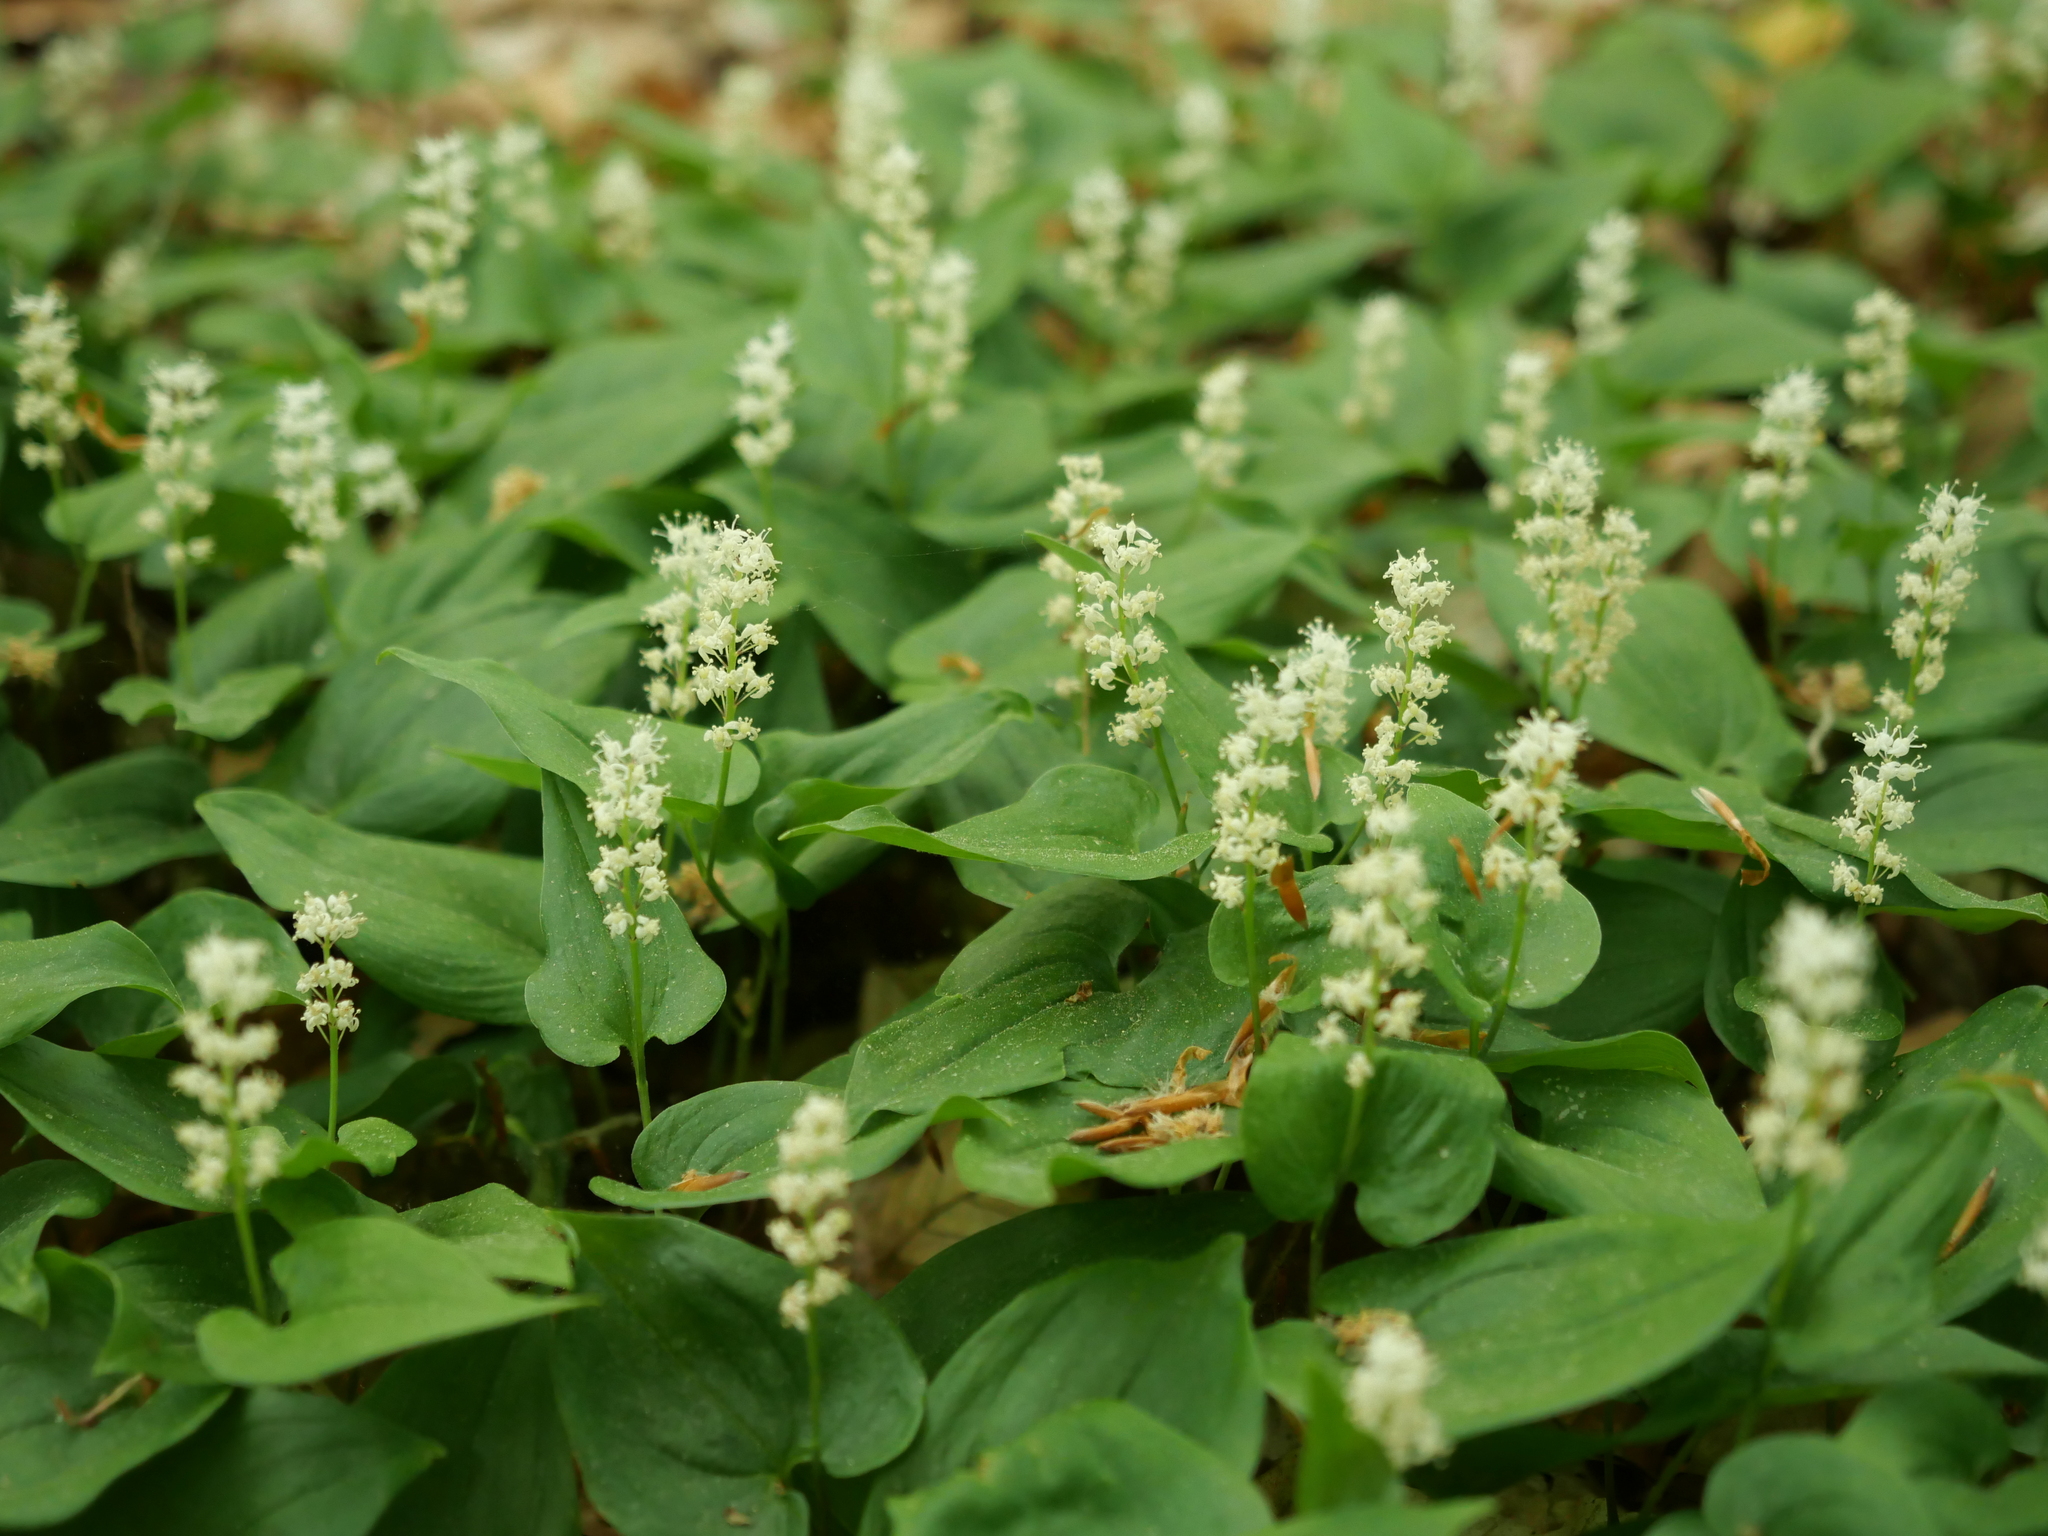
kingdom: Plantae
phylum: Tracheophyta
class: Liliopsida
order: Asparagales
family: Asparagaceae
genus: Maianthemum
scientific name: Maianthemum bifolium
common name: May lily
